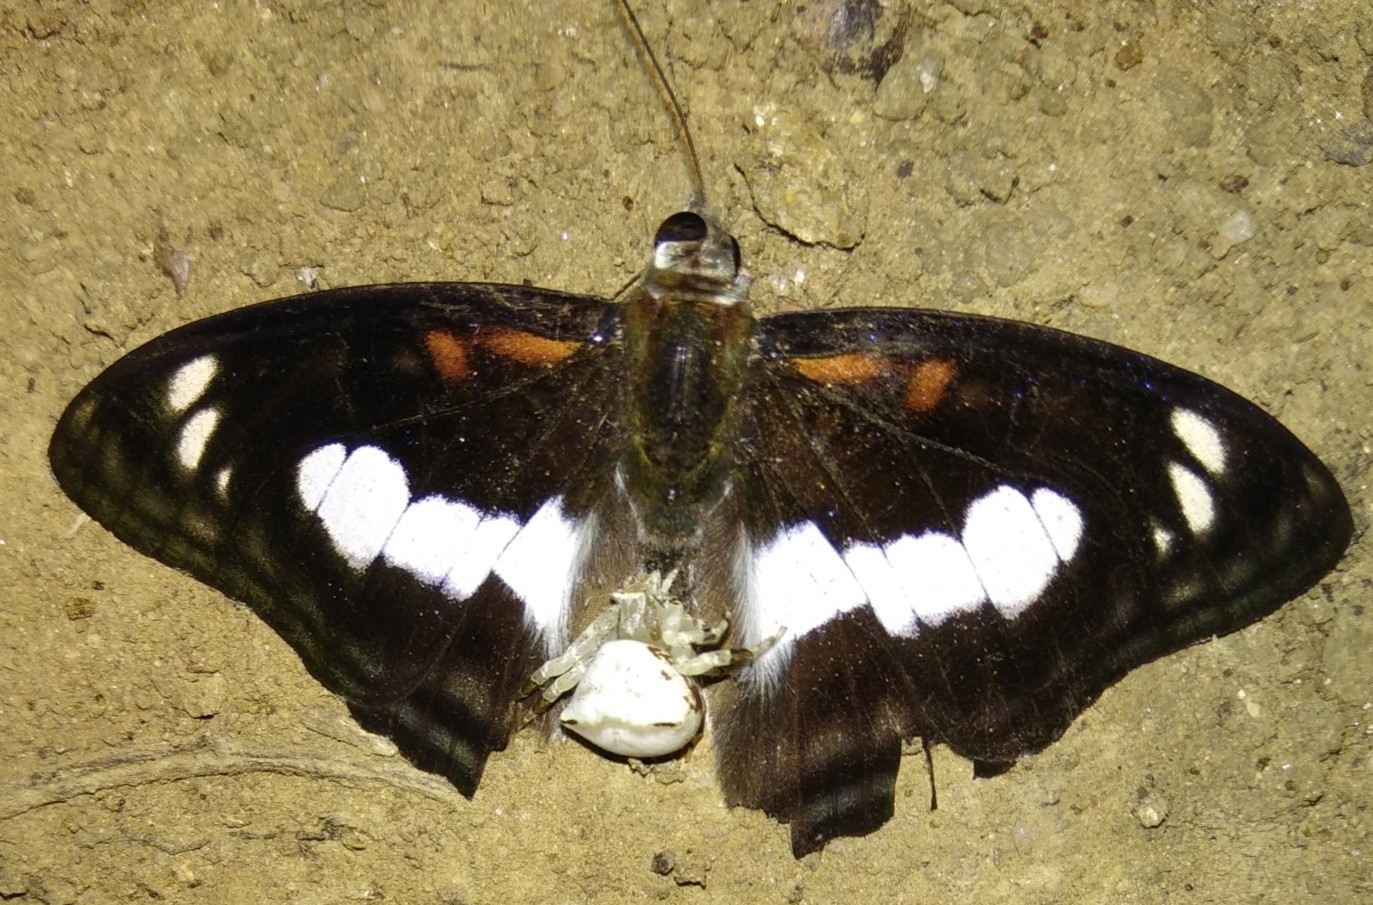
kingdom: Animalia
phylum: Arthropoda
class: Insecta
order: Lepidoptera
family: Nymphalidae
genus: Parathyma
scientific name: Parathyma selenophora
